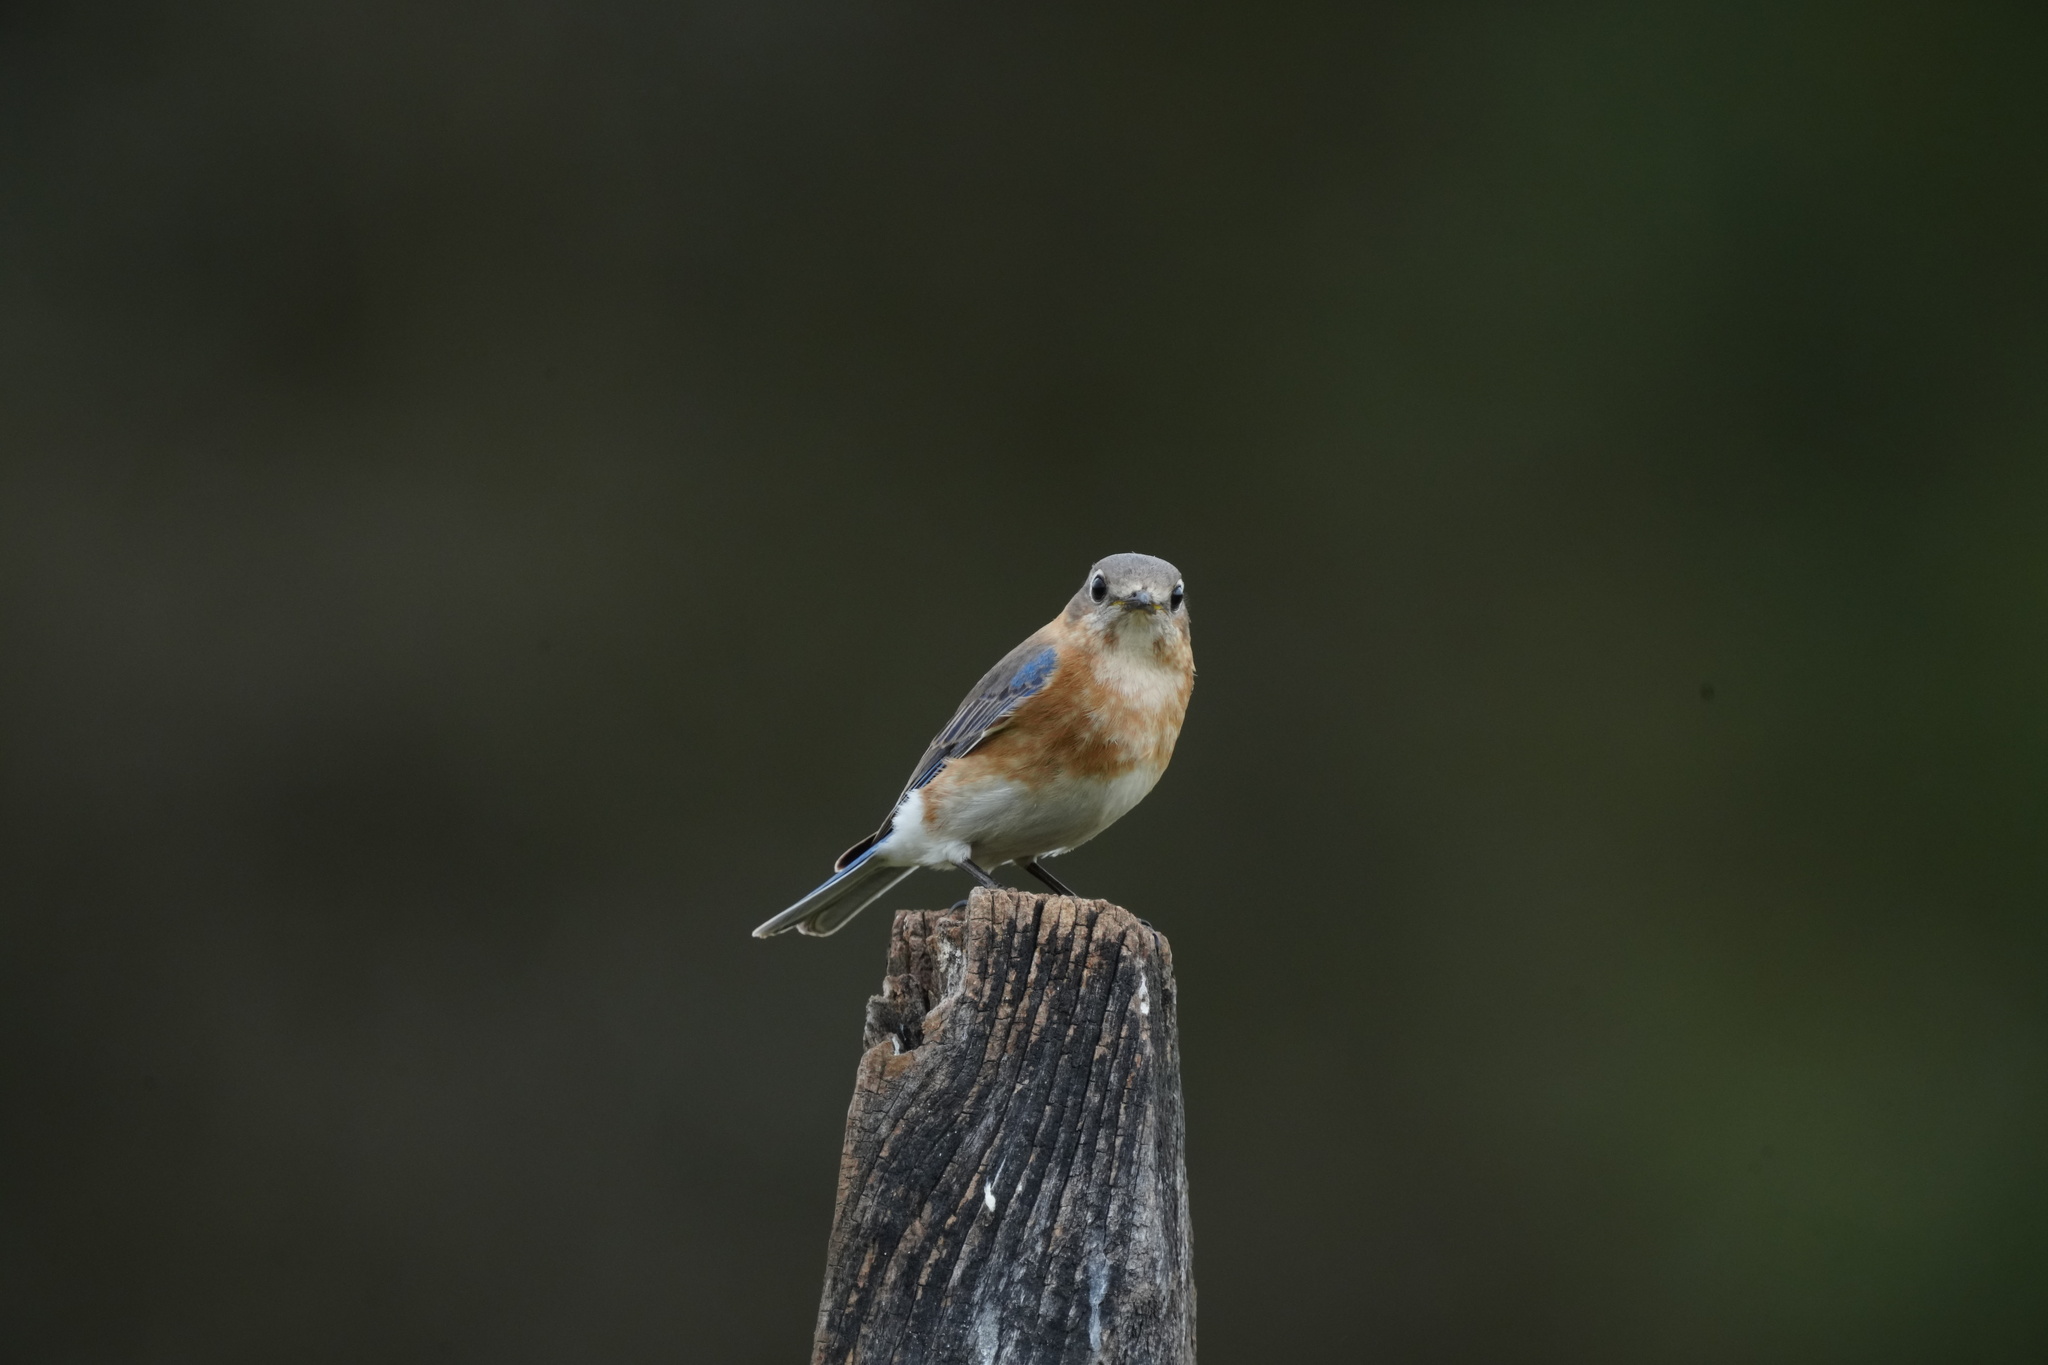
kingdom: Animalia
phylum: Chordata
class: Aves
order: Passeriformes
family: Turdidae
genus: Sialia
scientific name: Sialia sialis
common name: Eastern bluebird
